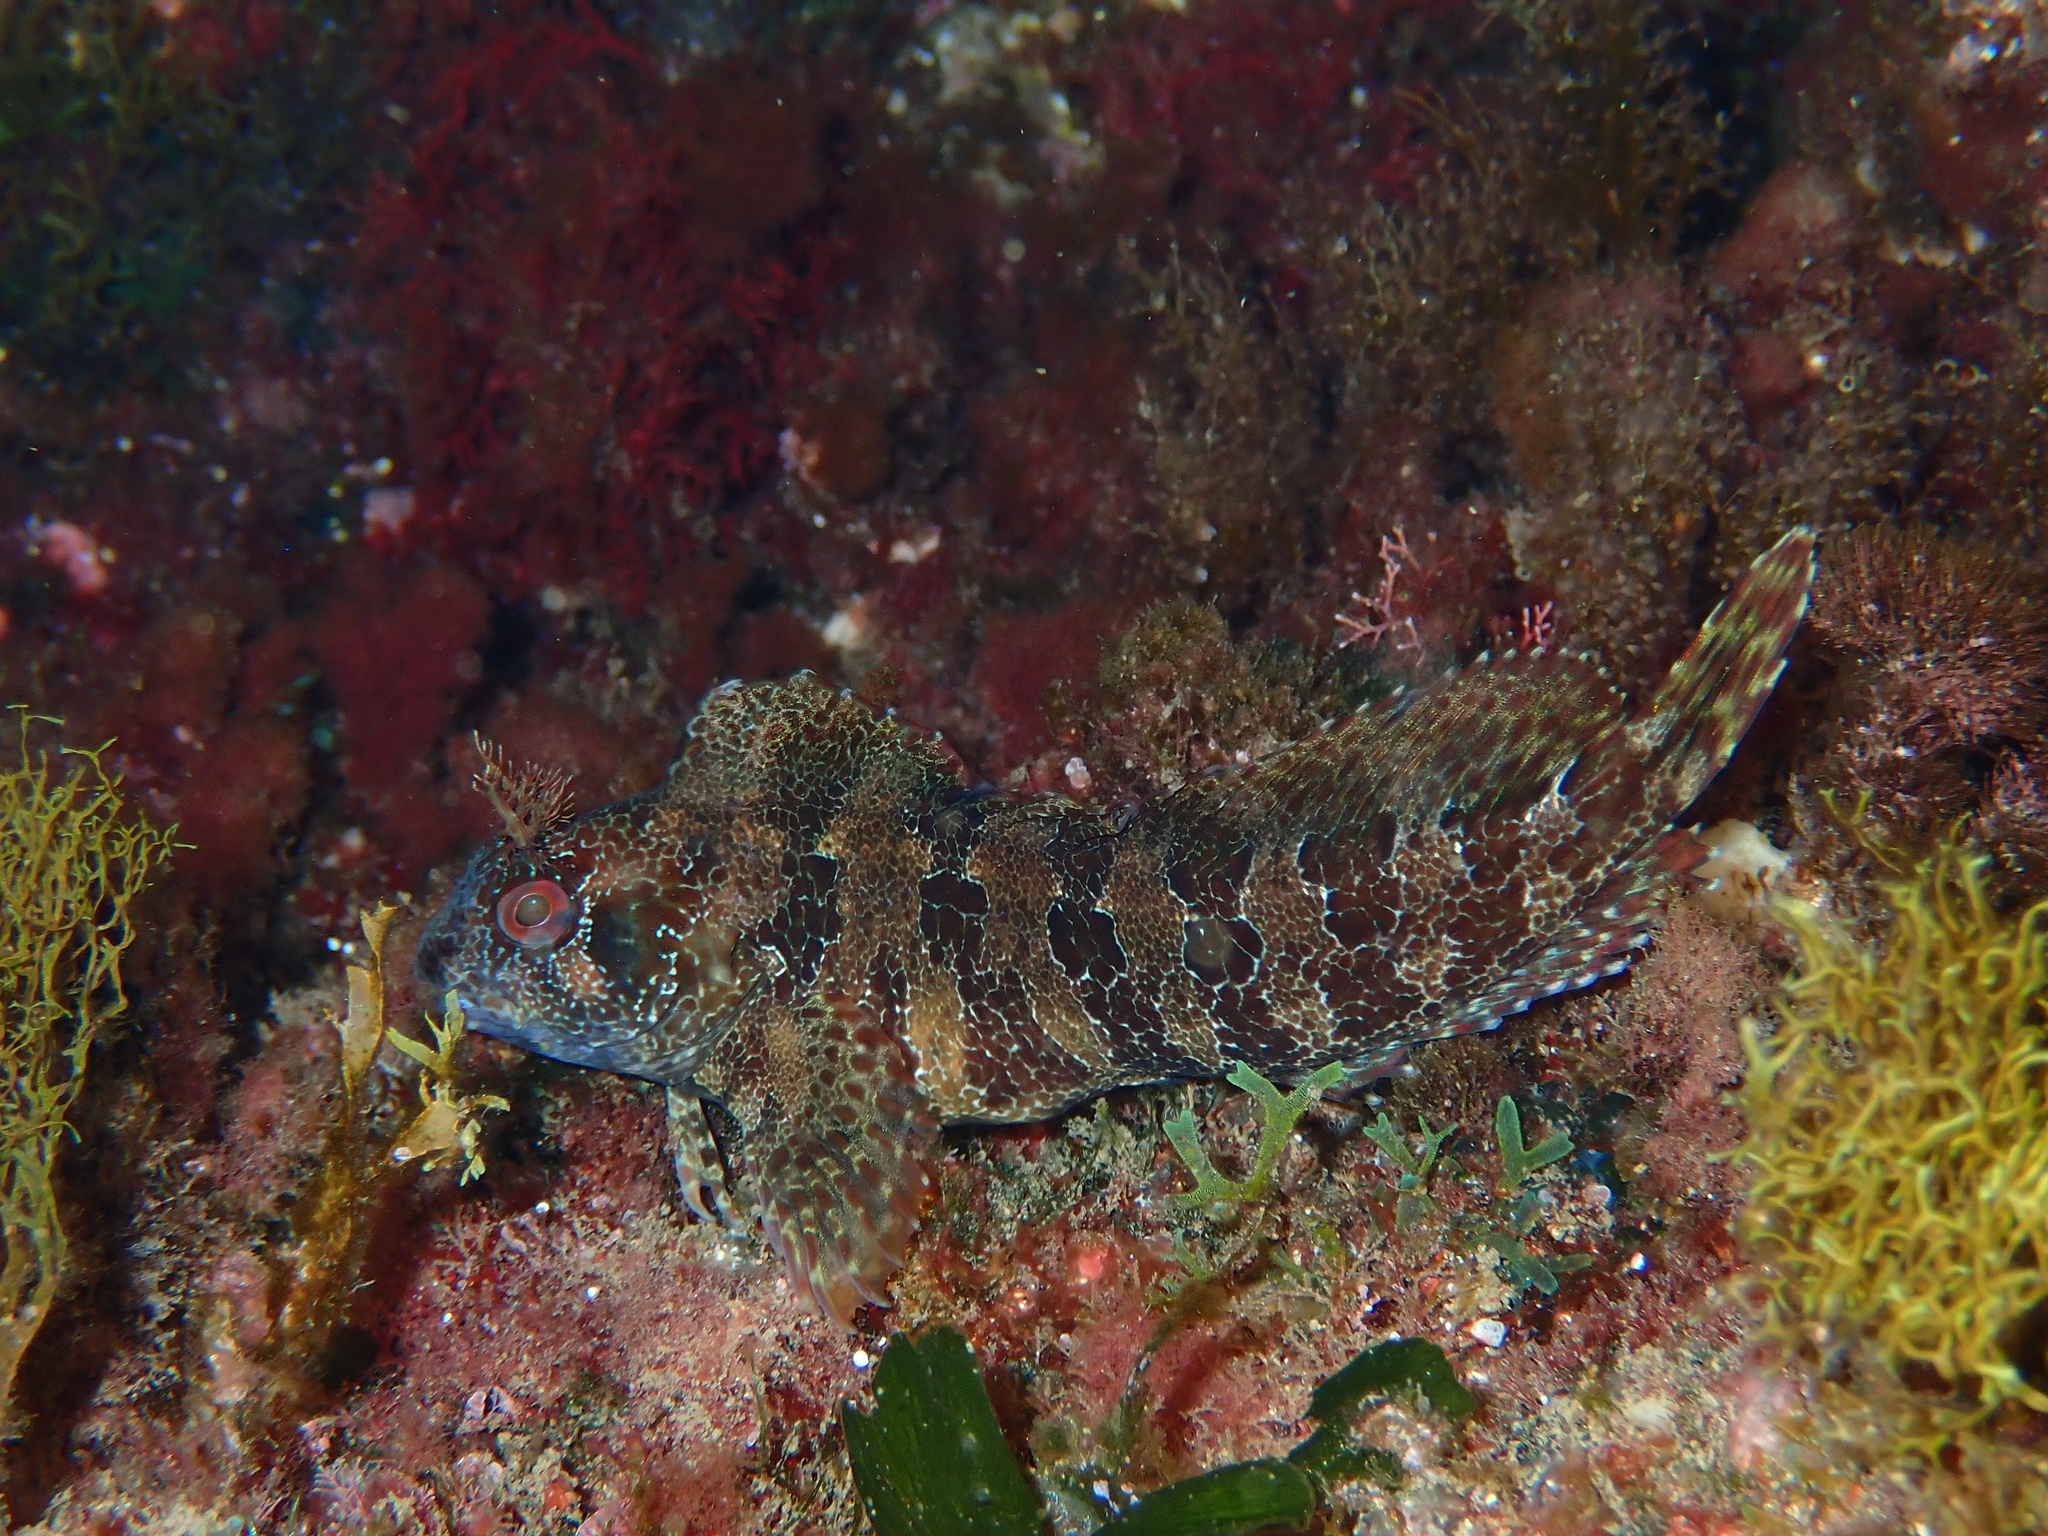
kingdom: Animalia
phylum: Chordata
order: Perciformes
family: Blenniidae
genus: Parablennius
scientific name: Parablennius gattorugine
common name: Tompot blenny
